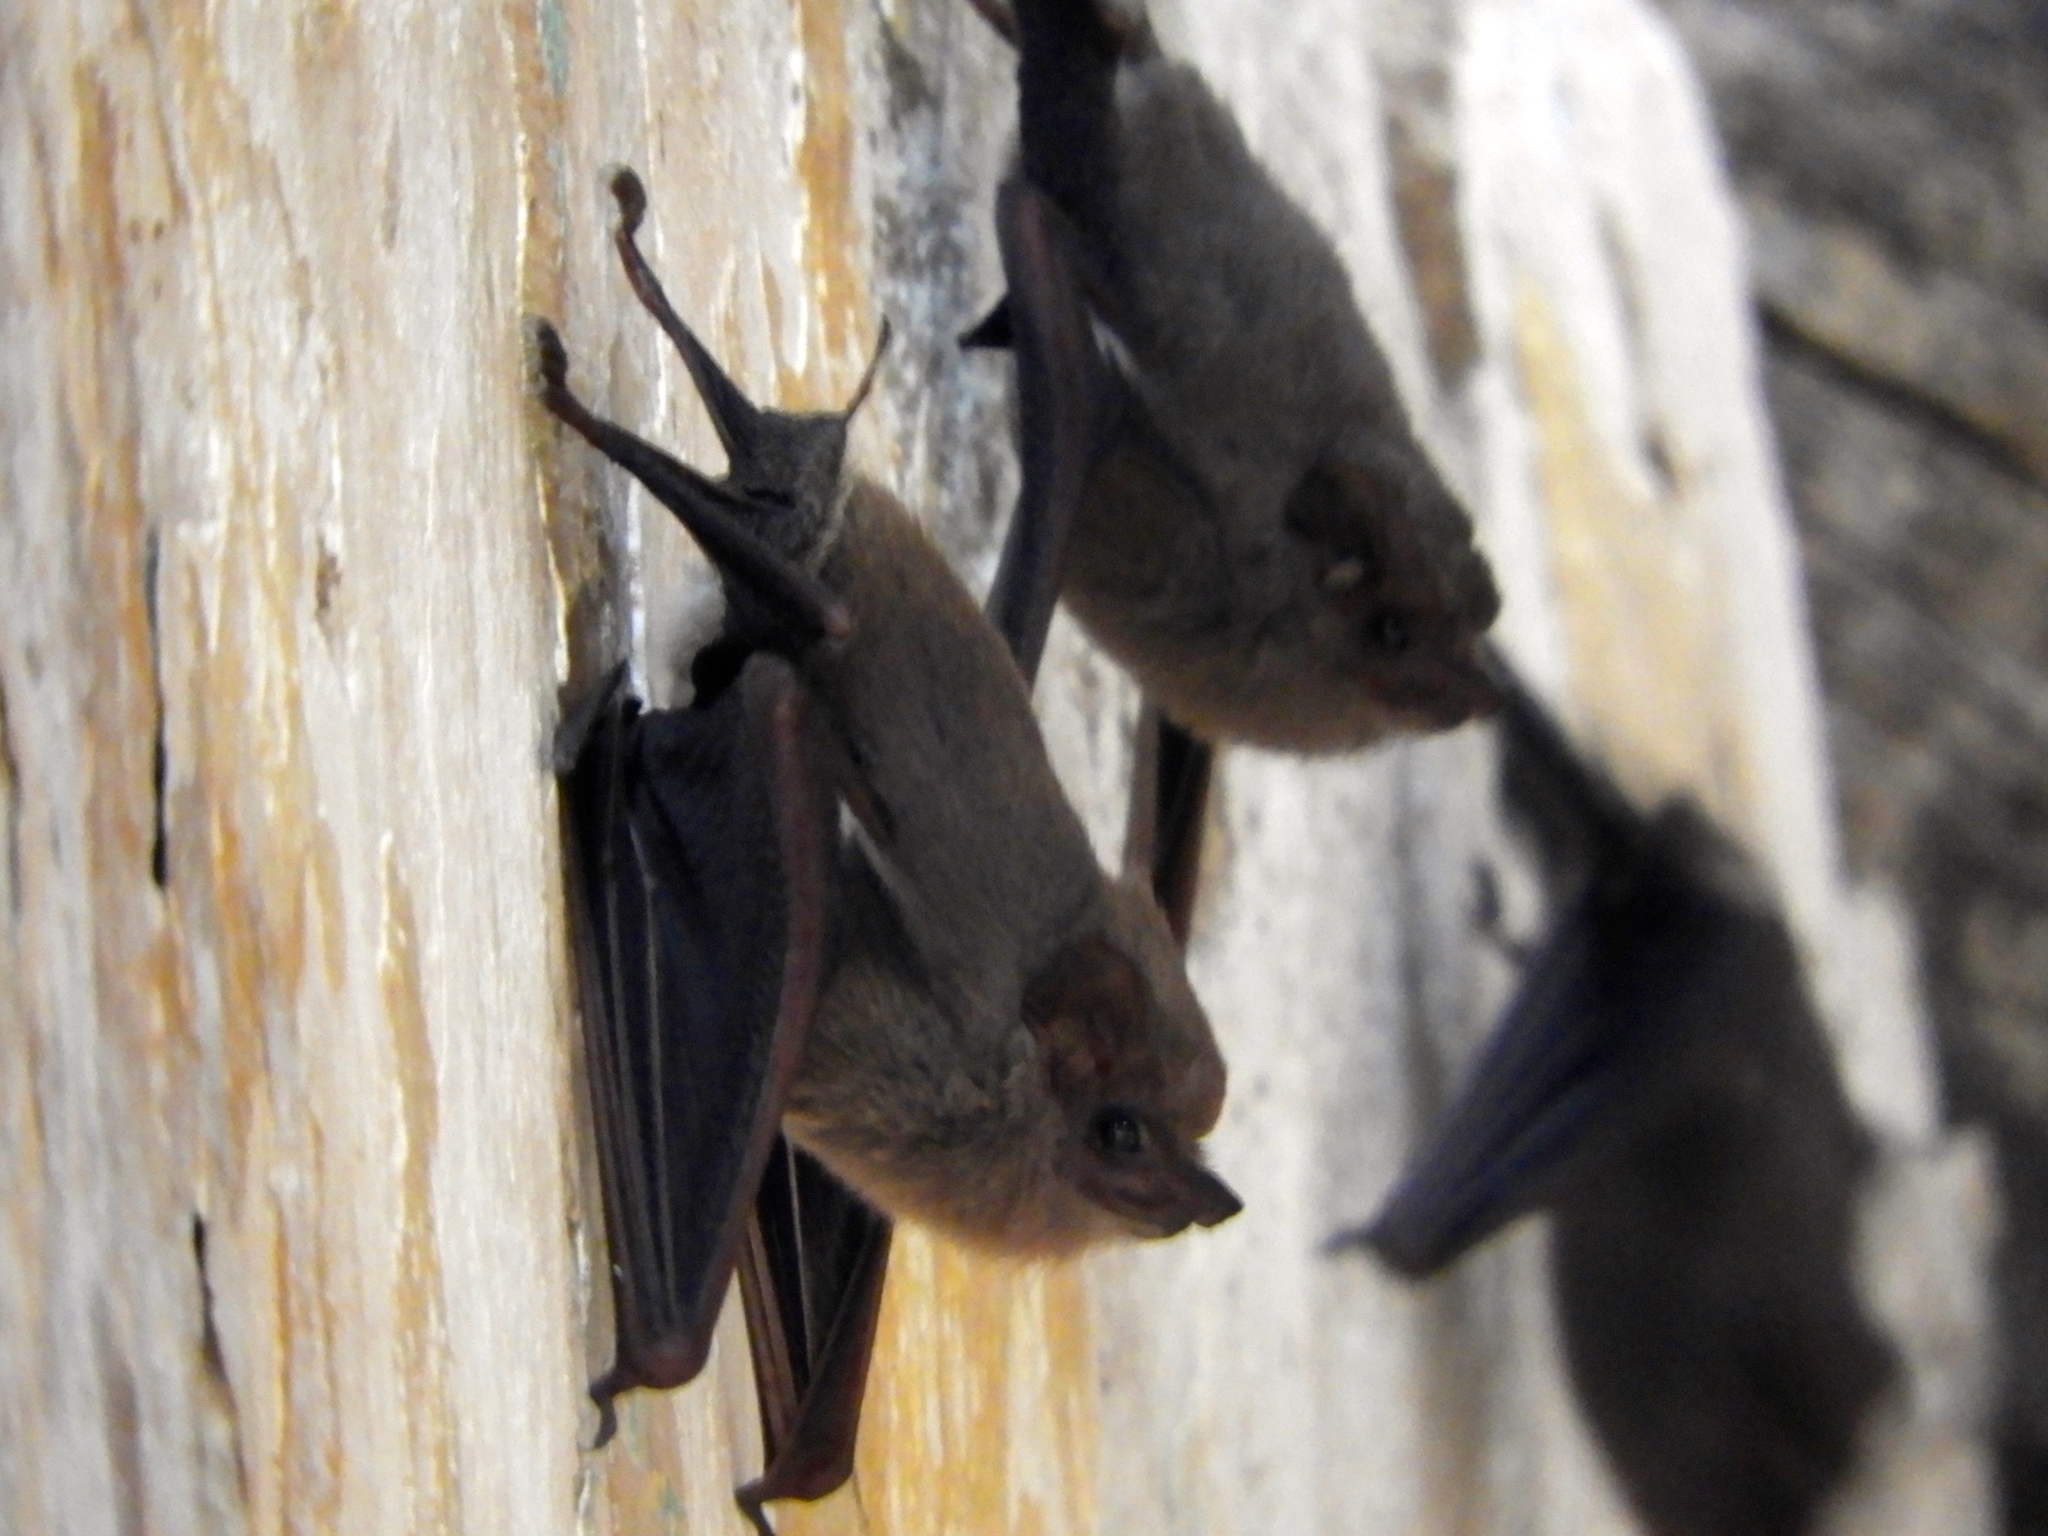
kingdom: Animalia
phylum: Chordata
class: Mammalia
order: Chiroptera
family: Emballonuridae
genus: Balantiopteryx
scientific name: Balantiopteryx plicata
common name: Gray sac-winged bat
